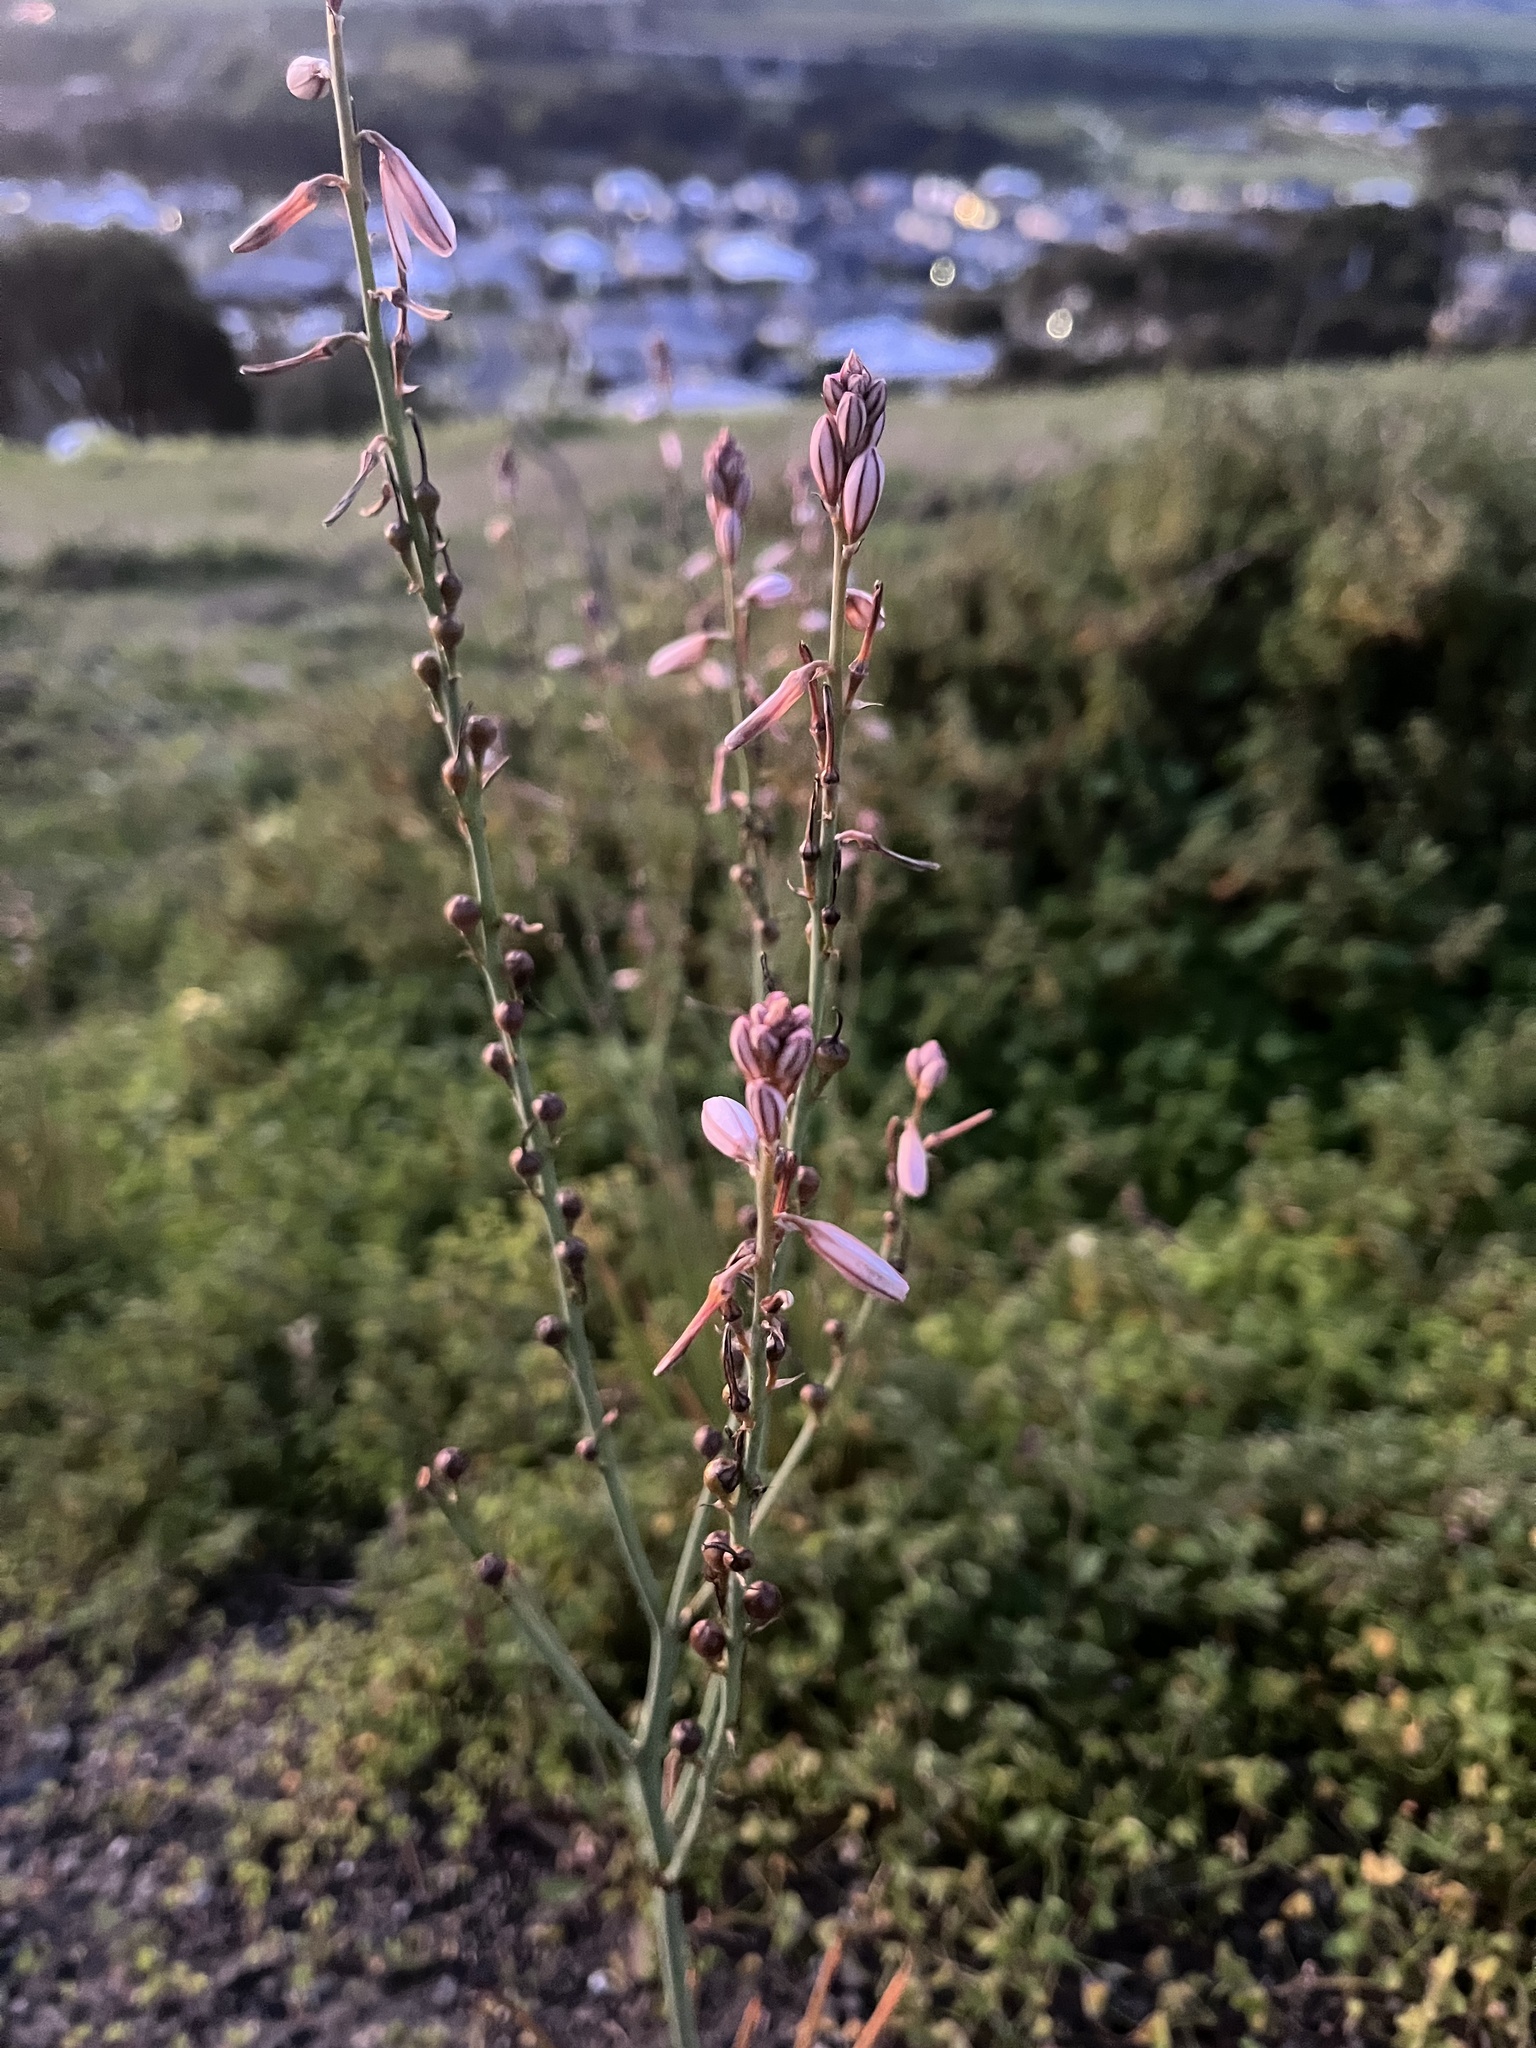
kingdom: Plantae
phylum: Tracheophyta
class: Liliopsida
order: Asparagales
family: Asphodelaceae
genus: Asphodelus
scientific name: Asphodelus fistulosus
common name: Onionweed
